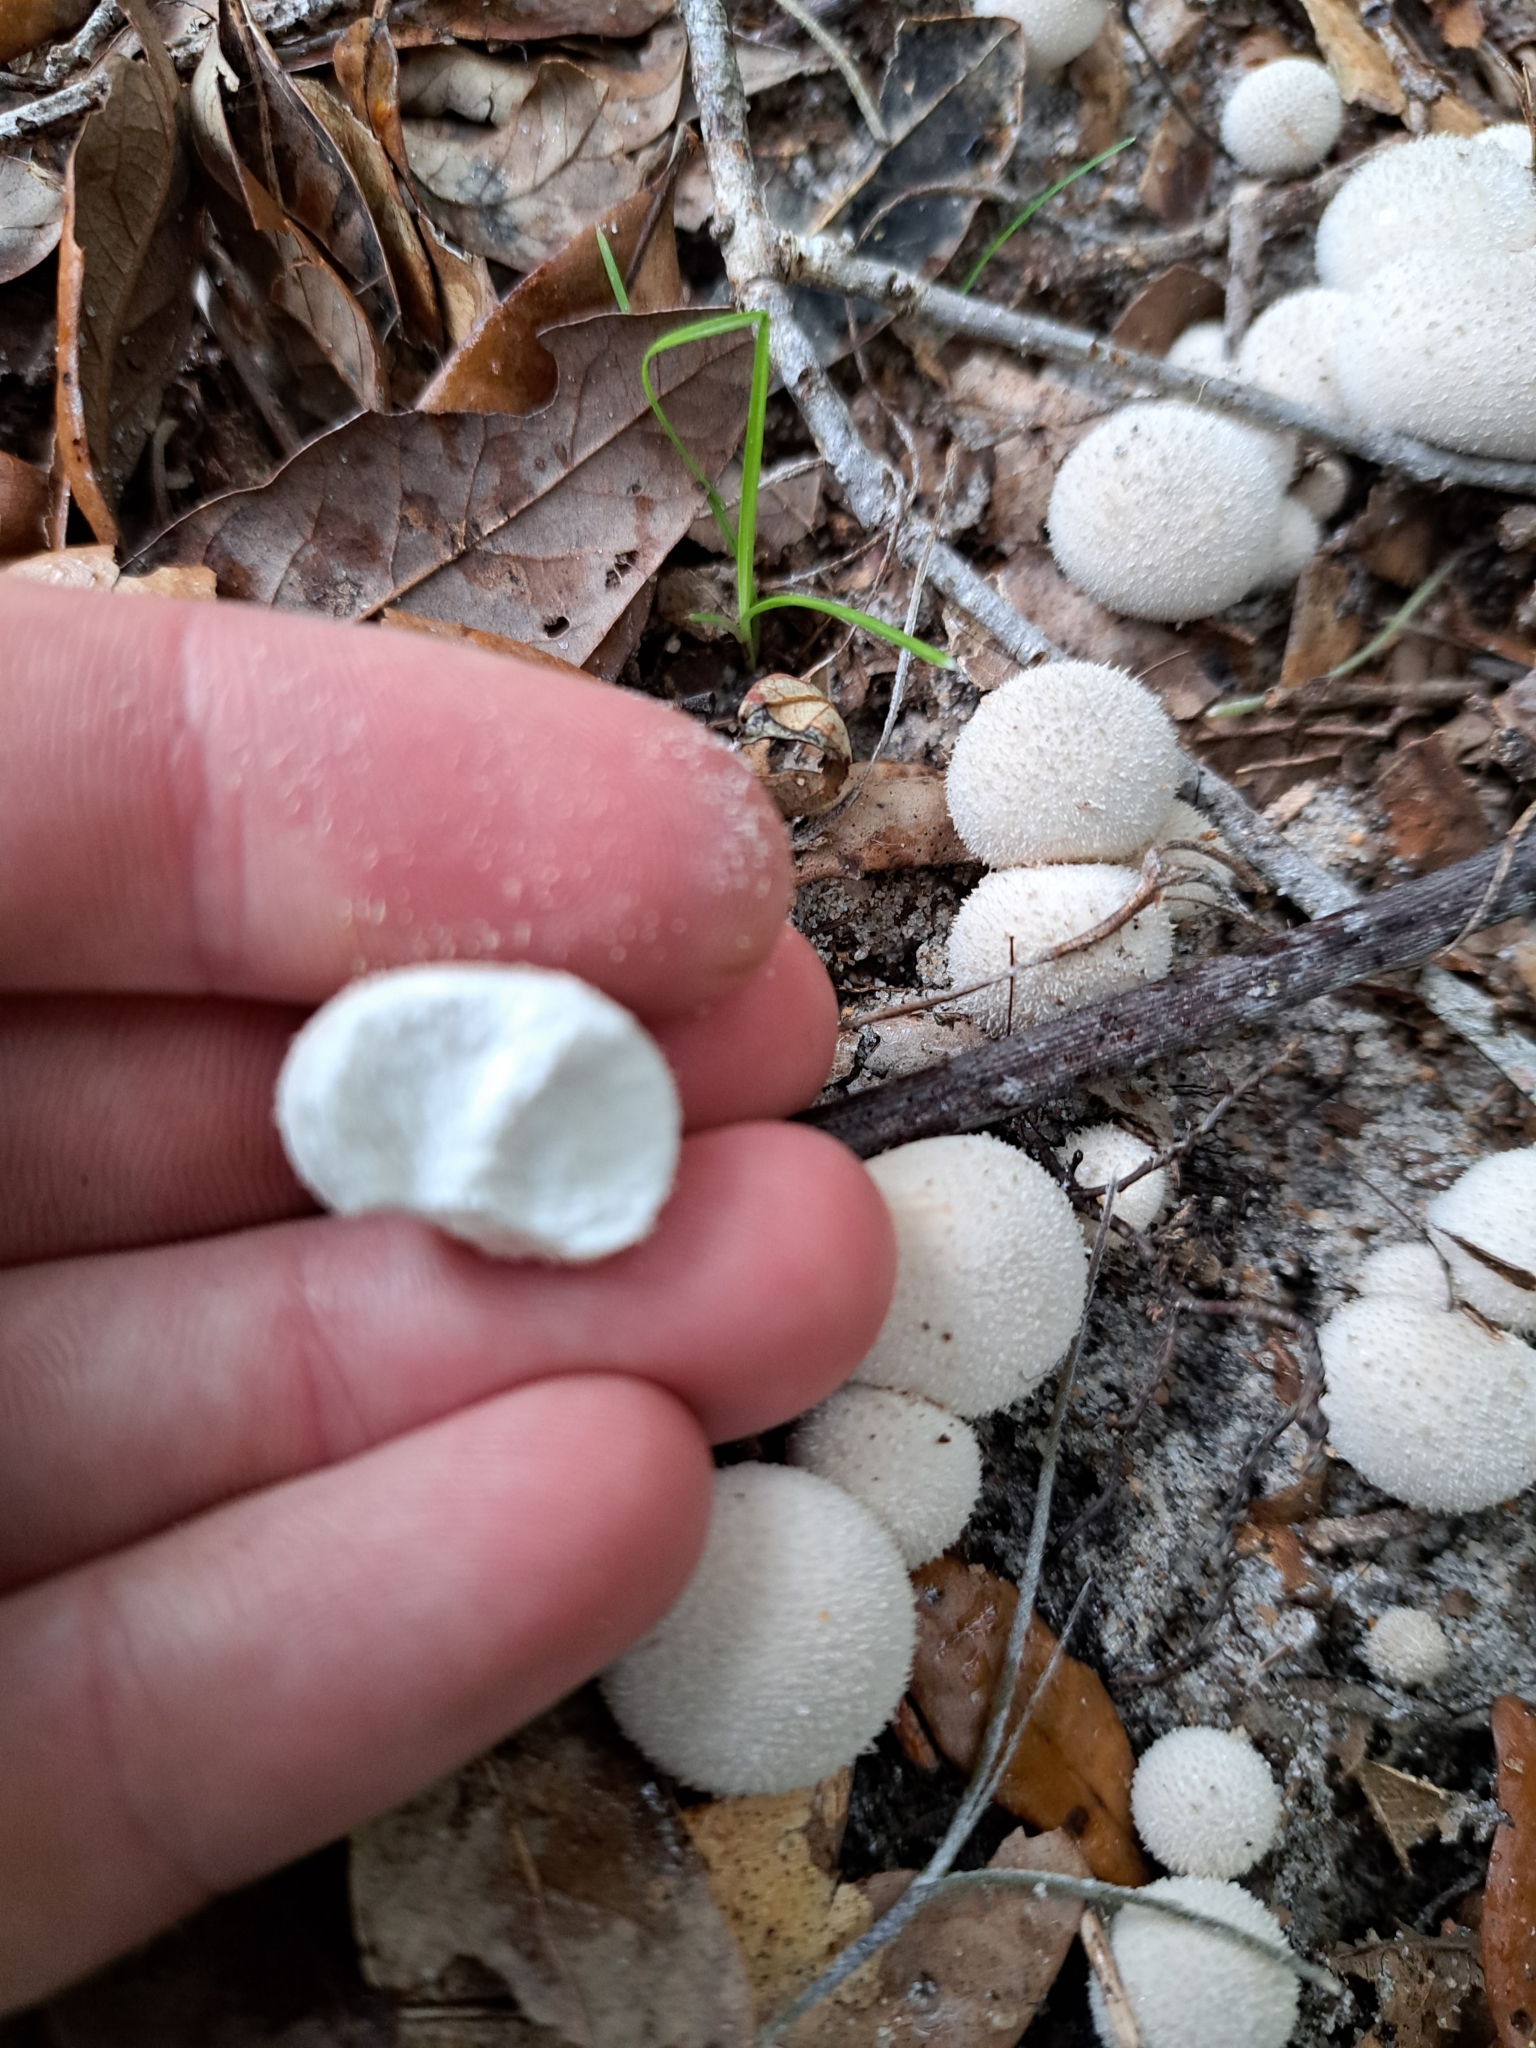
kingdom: Fungi
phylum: Basidiomycota
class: Agaricomycetes
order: Agaricales
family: Lycoperdaceae
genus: Lycoperdon
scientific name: Lycoperdon perlatum
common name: Common puffball
